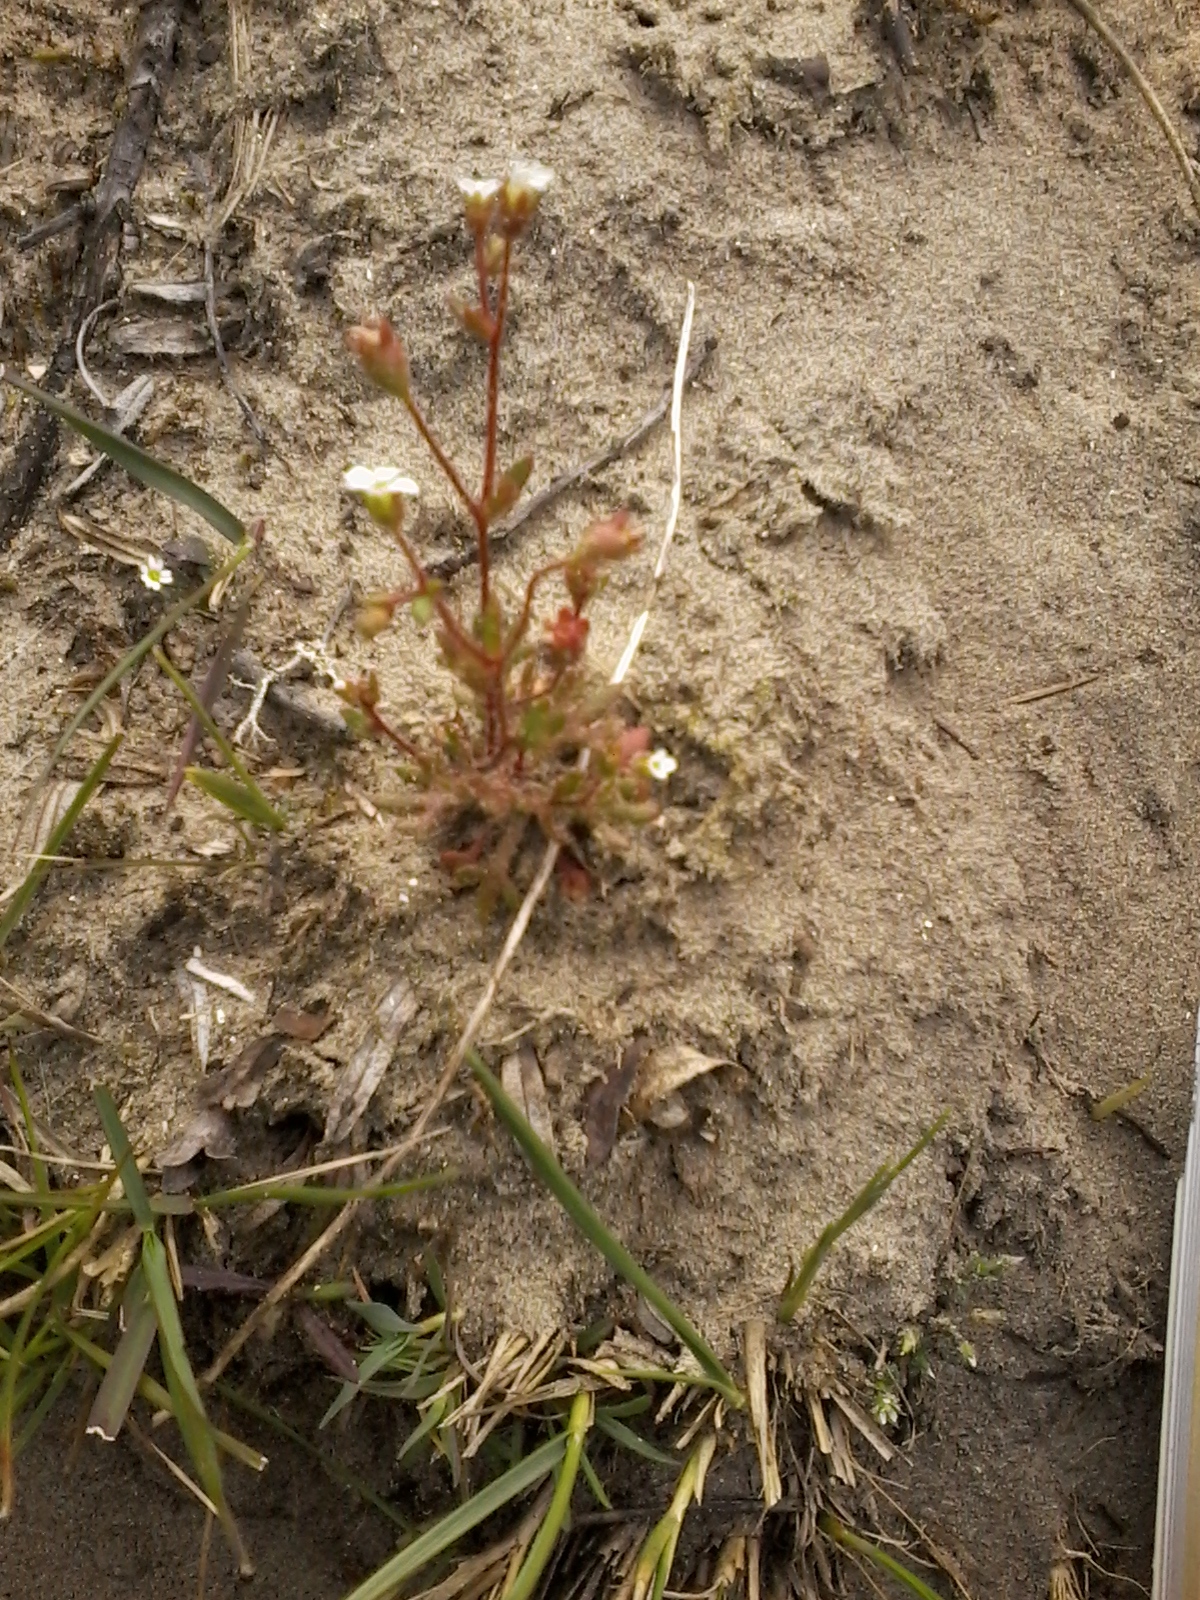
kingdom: Plantae
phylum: Tracheophyta
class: Magnoliopsida
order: Saxifragales
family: Saxifragaceae
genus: Saxifraga
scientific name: Saxifraga tridactylites
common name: Rue-leaved saxifrage
